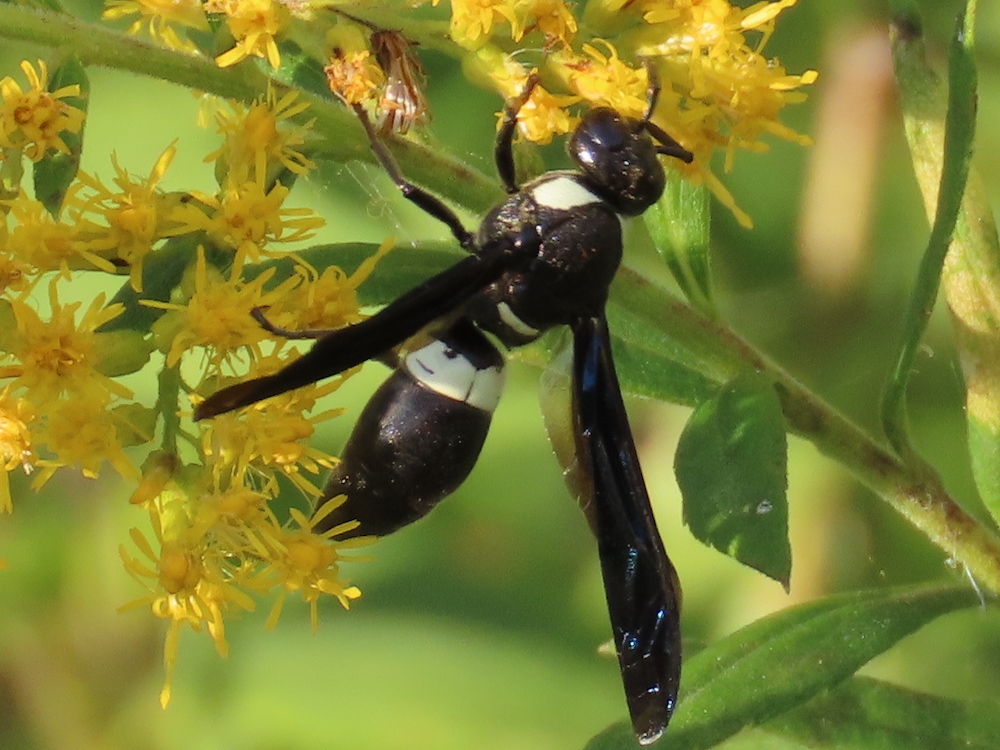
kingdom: Animalia
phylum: Arthropoda
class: Insecta
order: Hymenoptera
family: Eumenidae
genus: Monobia
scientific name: Monobia quadridens
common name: Four-toothed mason wasp
